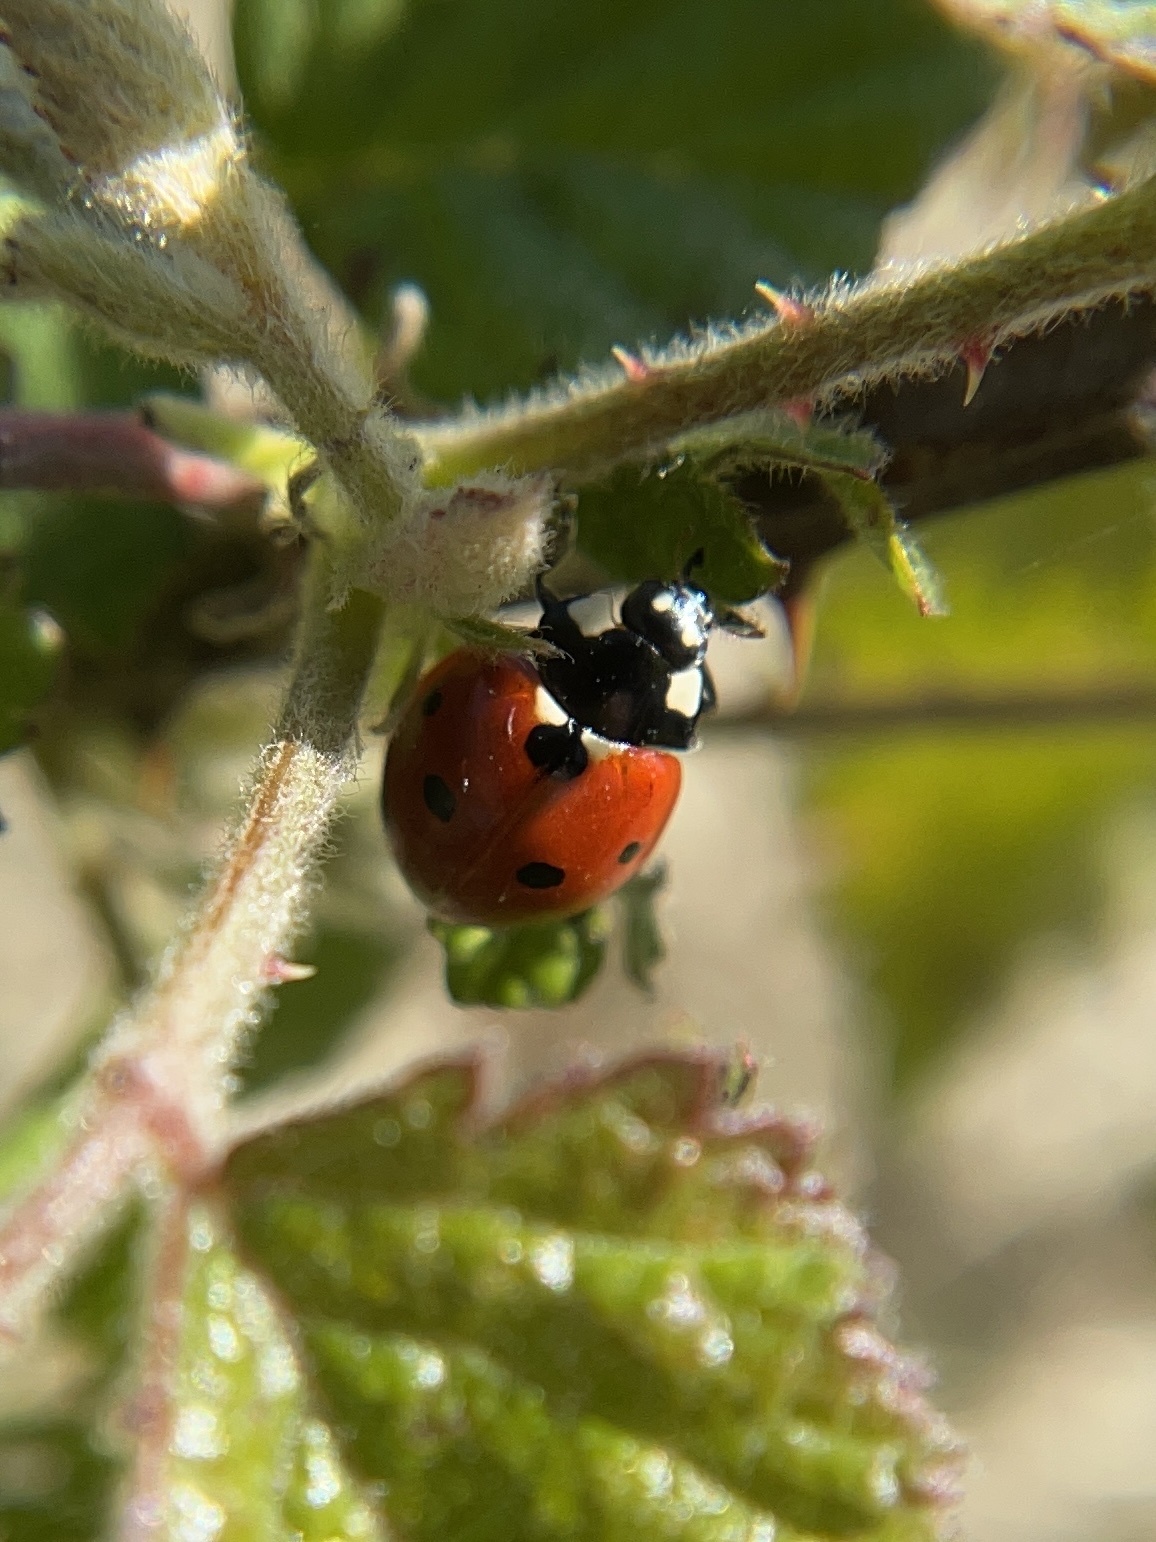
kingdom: Animalia
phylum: Arthropoda
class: Insecta
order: Coleoptera
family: Coccinellidae
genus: Coccinella
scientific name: Coccinella septempunctata
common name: Sevenspotted lady beetle
